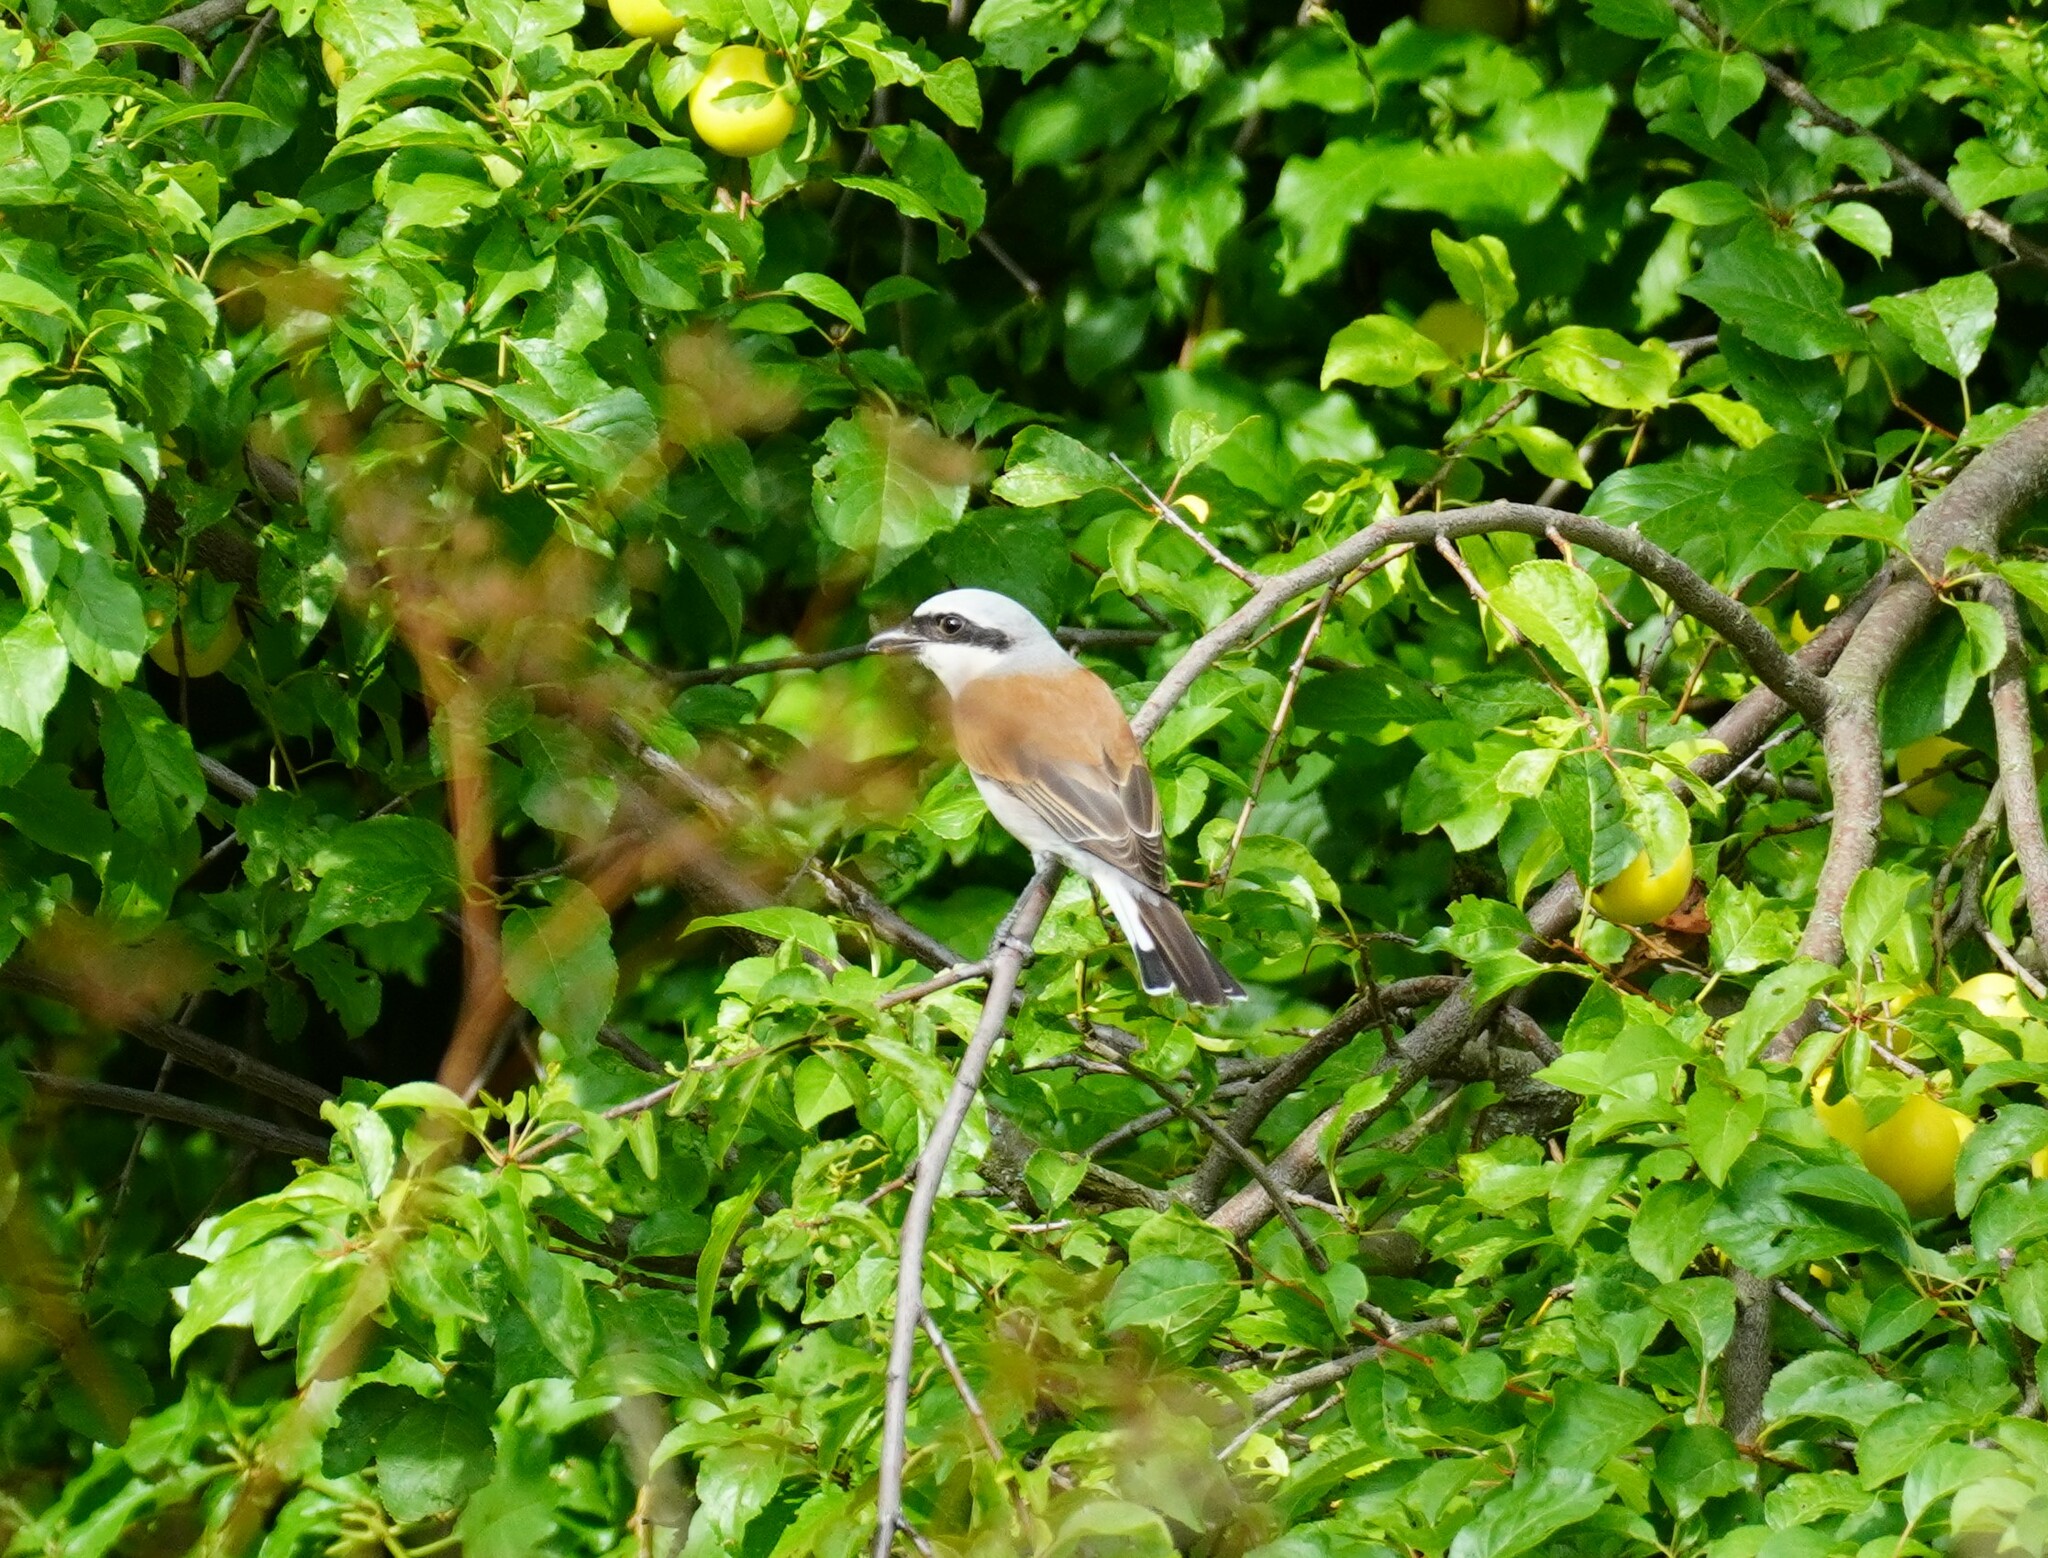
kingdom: Animalia
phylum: Chordata
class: Aves
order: Passeriformes
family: Laniidae
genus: Lanius
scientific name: Lanius collurio
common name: Red-backed shrike
